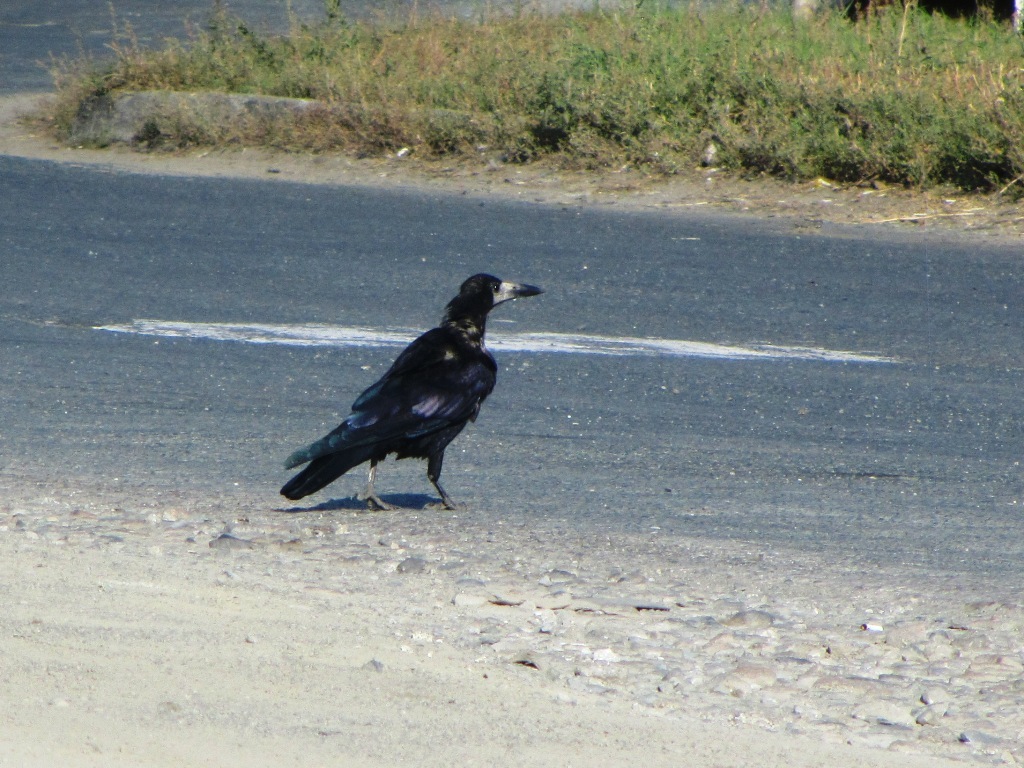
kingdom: Animalia
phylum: Chordata
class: Aves
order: Passeriformes
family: Corvidae
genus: Corvus
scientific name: Corvus frugilegus
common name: Rook
